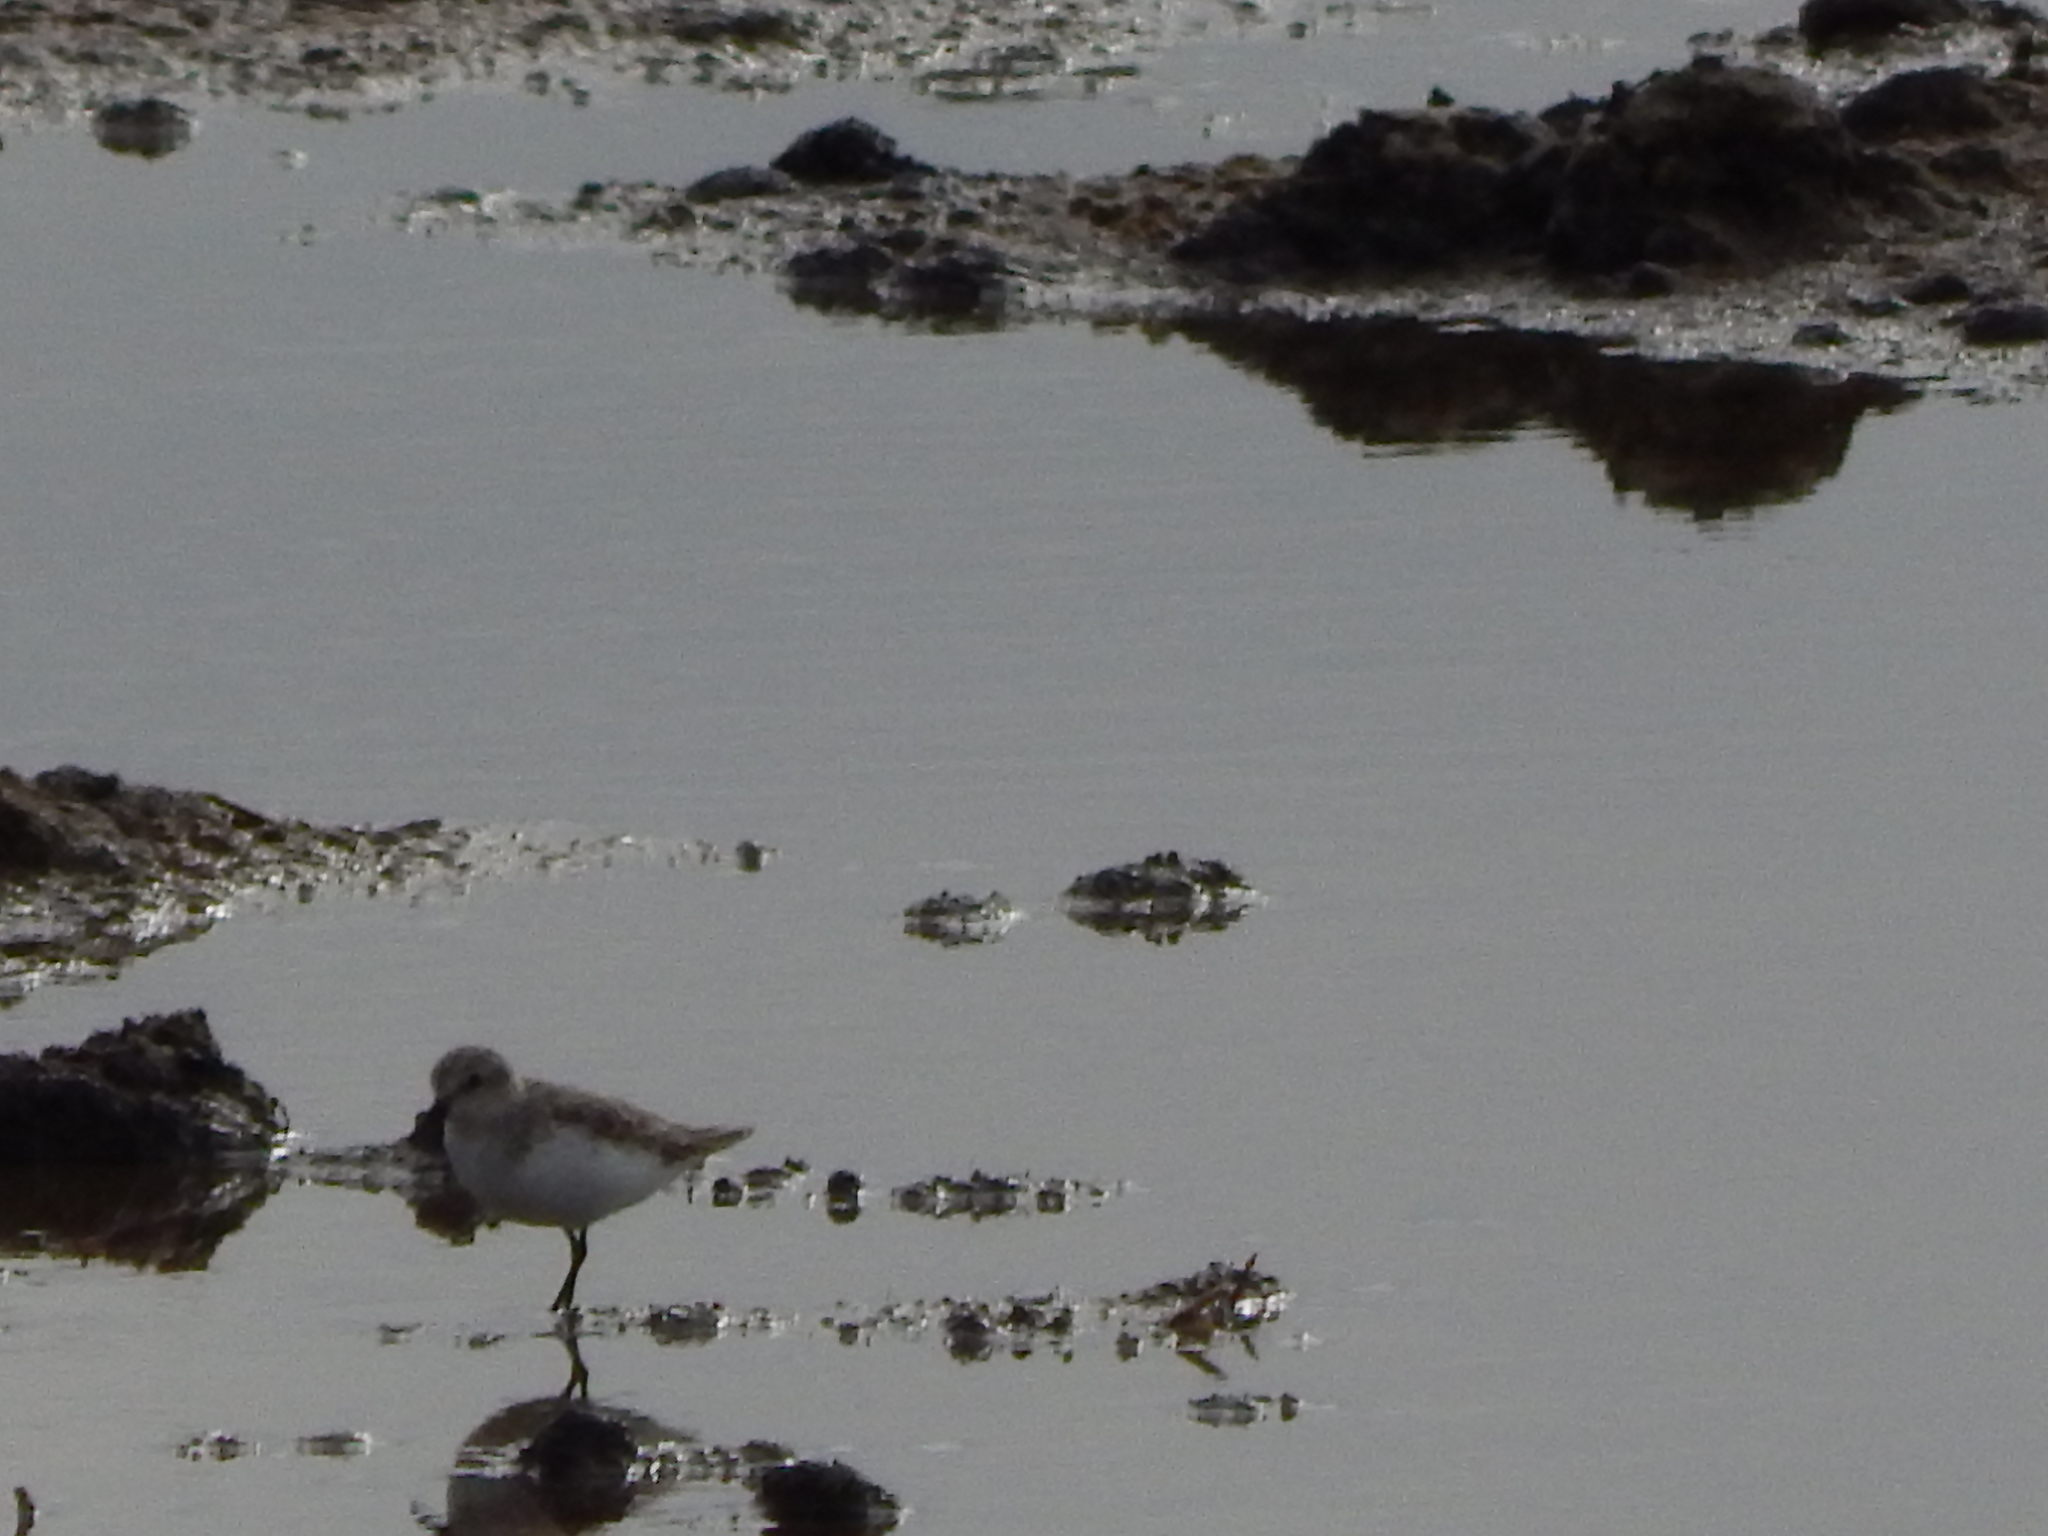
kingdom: Animalia
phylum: Chordata
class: Aves
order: Charadriiformes
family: Scolopacidae
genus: Calidris
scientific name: Calidris ruficollis
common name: Red-necked stint
